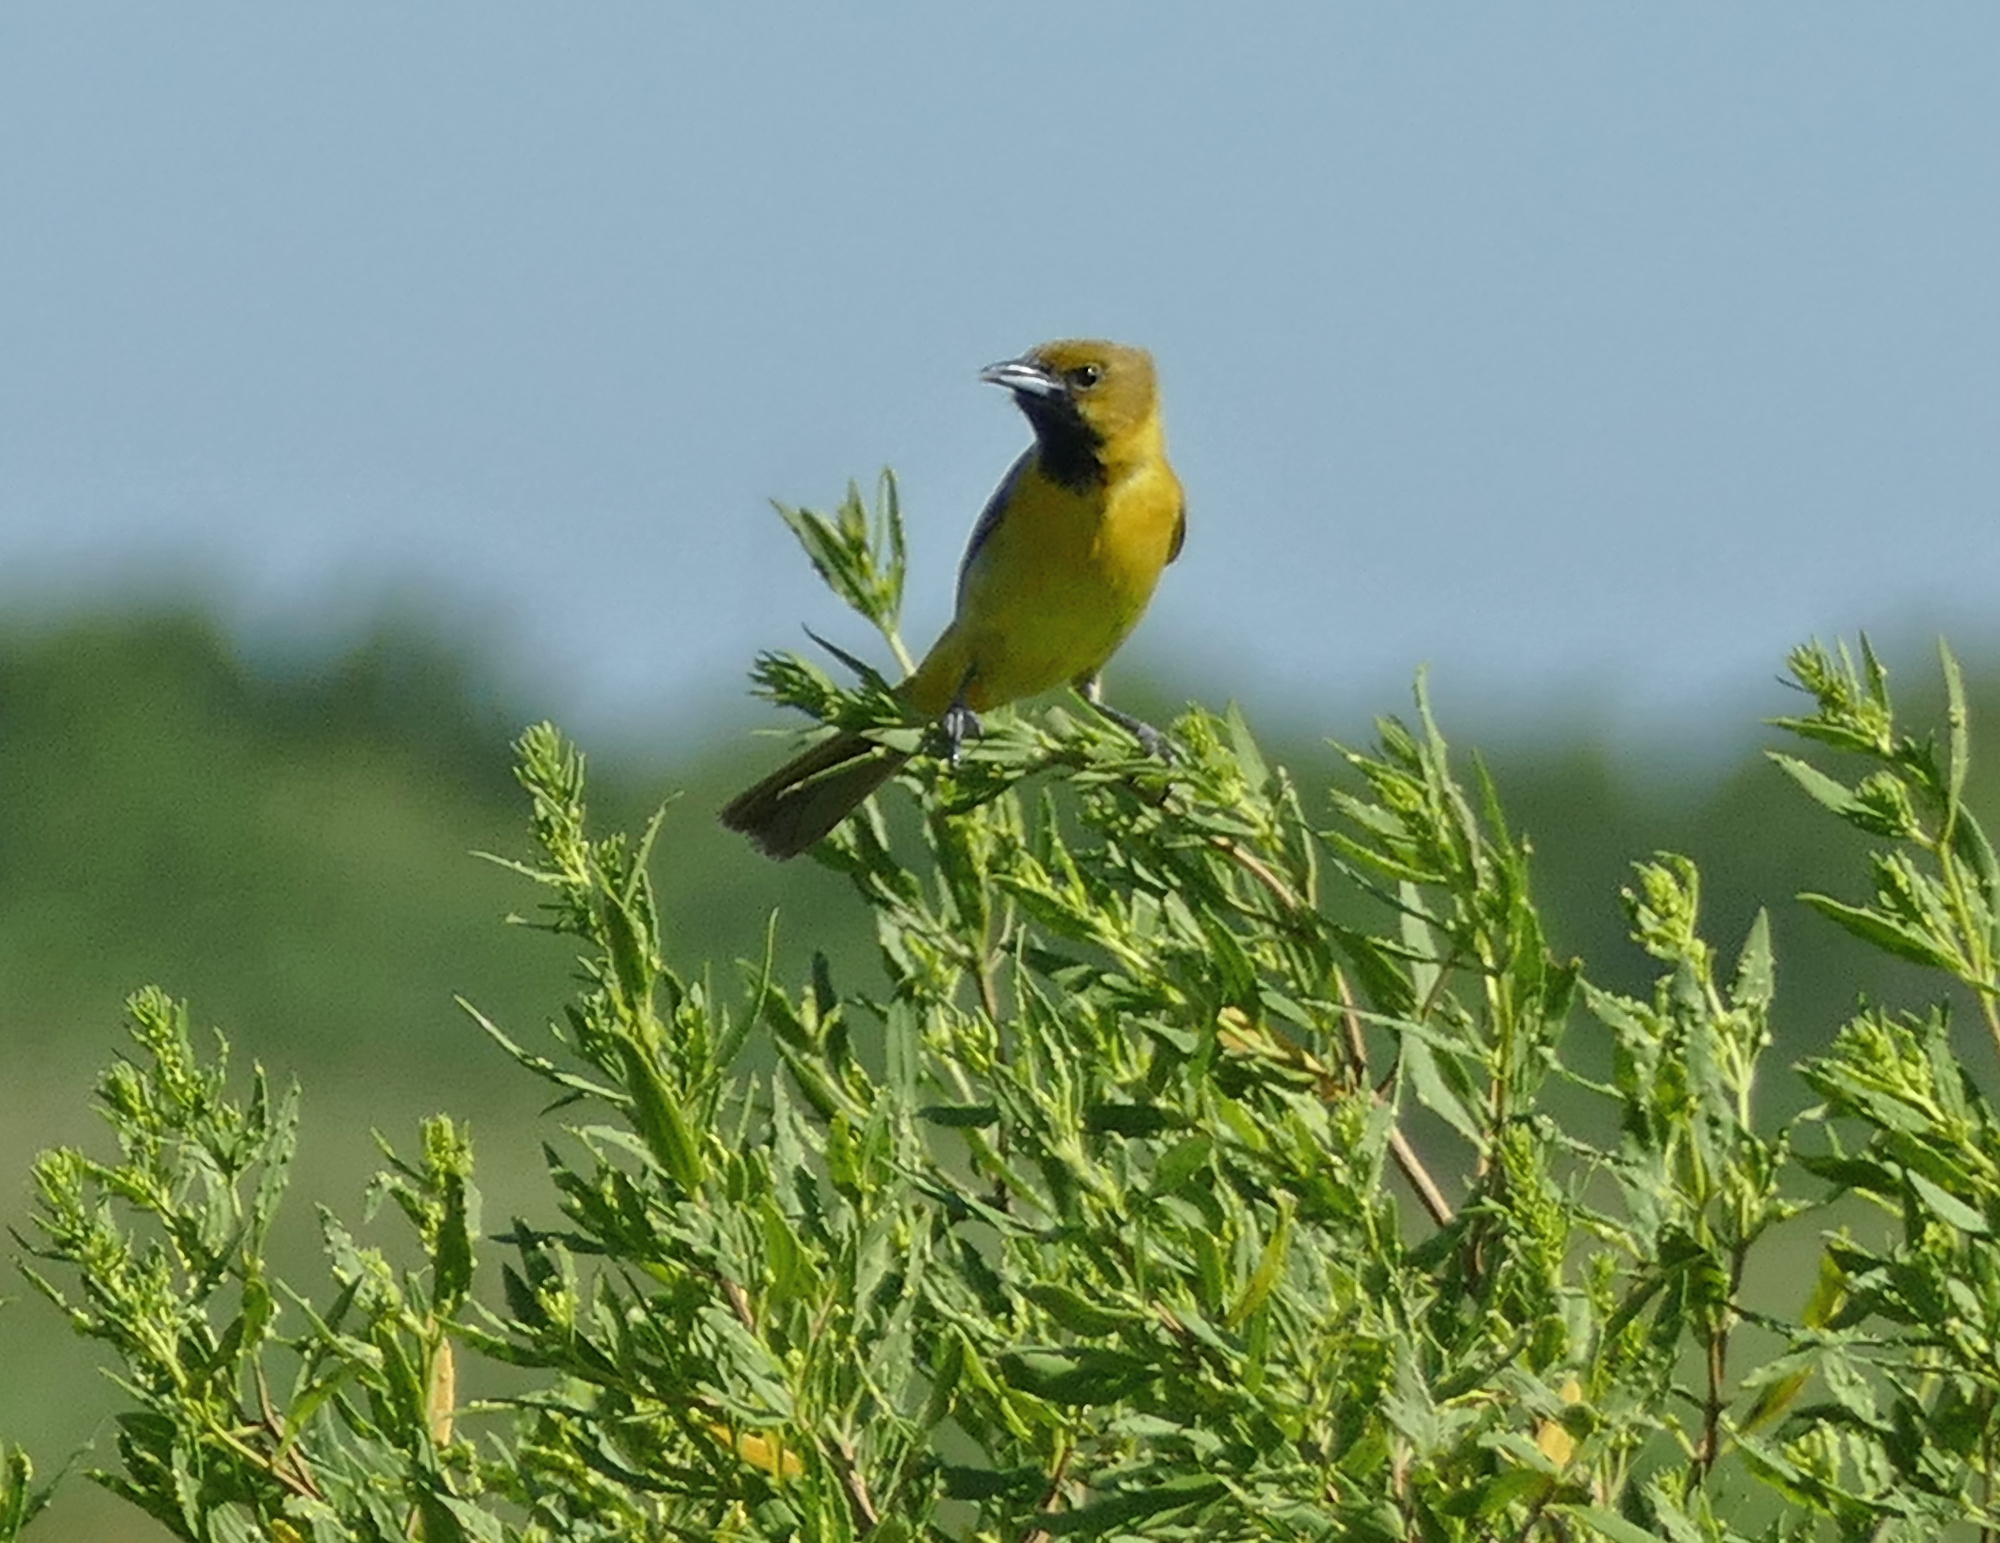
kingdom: Animalia
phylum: Chordata
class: Aves
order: Passeriformes
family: Icteridae
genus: Icterus
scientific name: Icterus spurius
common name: Orchard oriole
